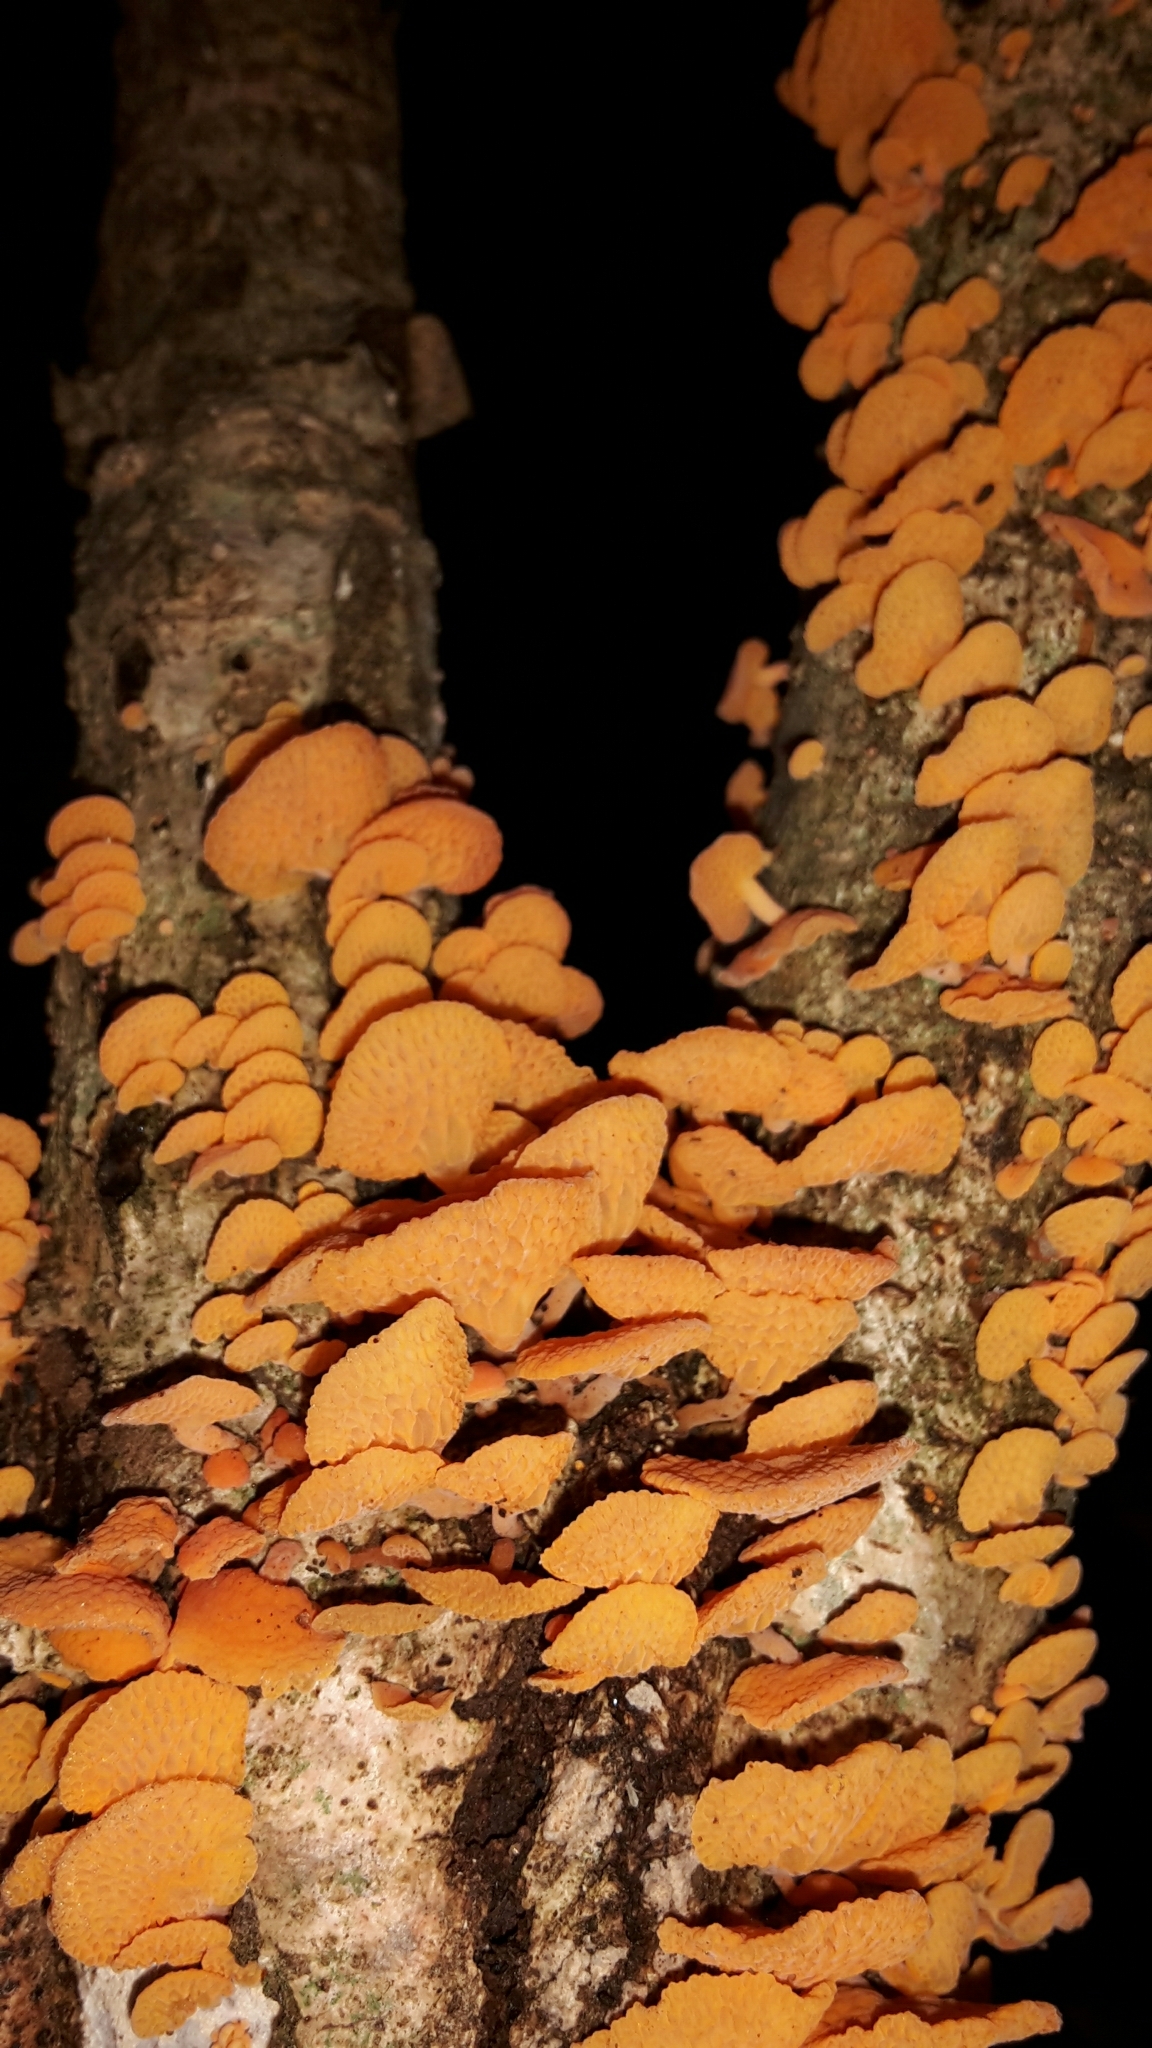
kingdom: Fungi
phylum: Basidiomycota
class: Agaricomycetes
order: Agaricales
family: Mycenaceae
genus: Favolaschia
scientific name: Favolaschia claudopus
